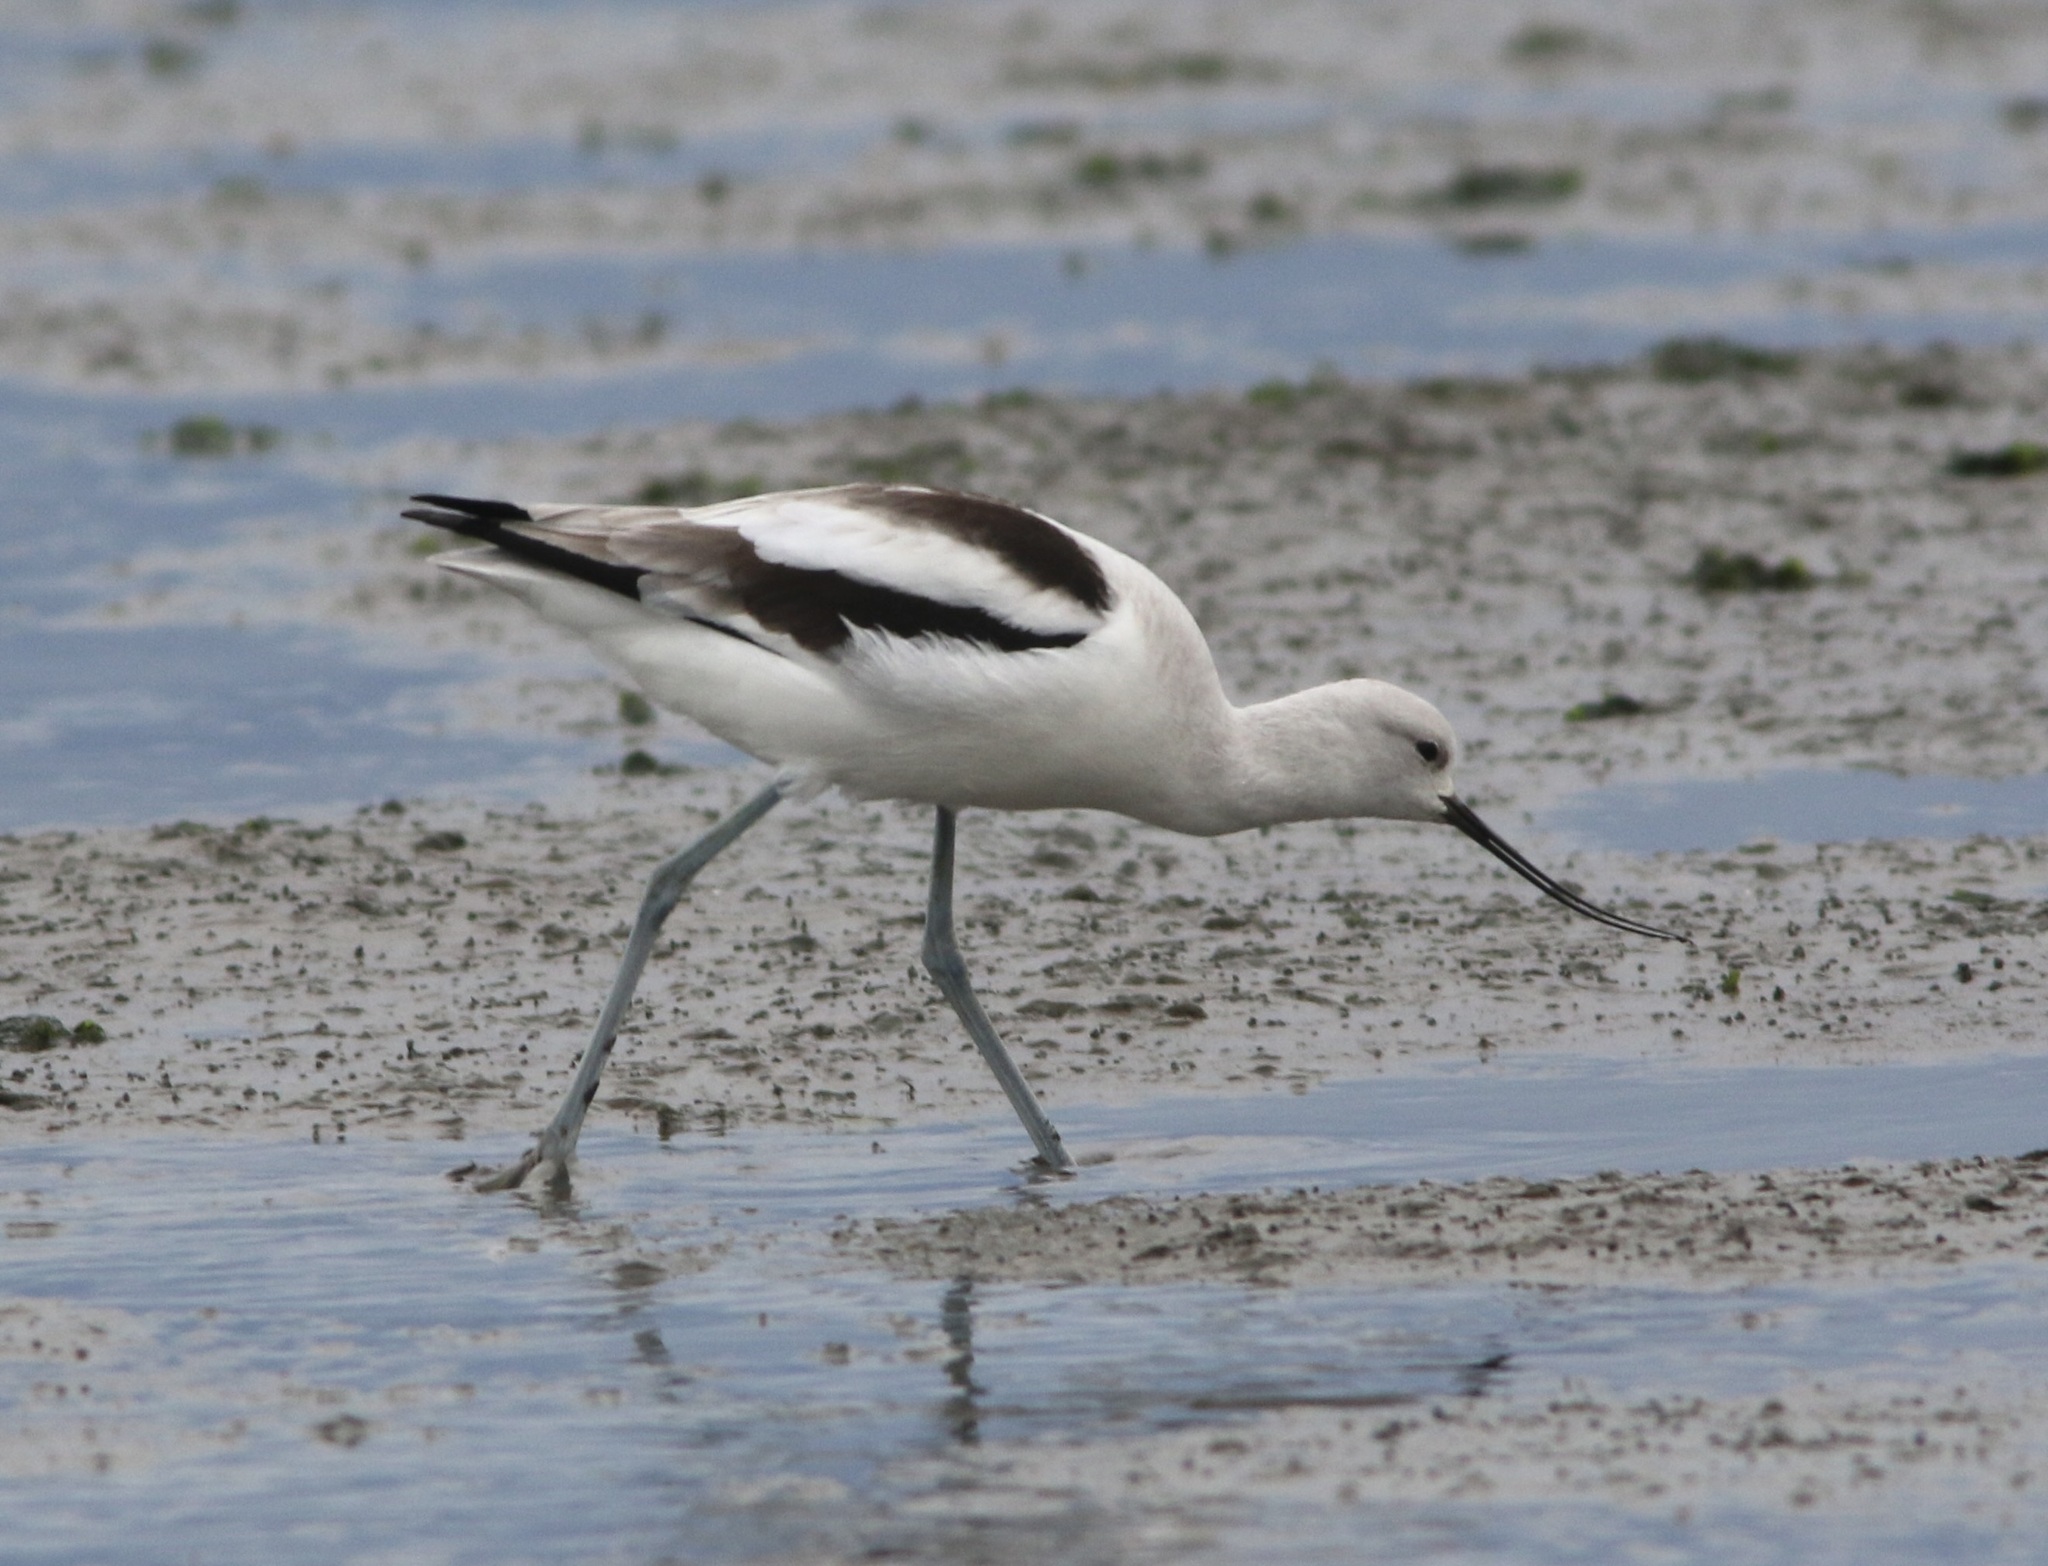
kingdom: Animalia
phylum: Chordata
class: Aves
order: Charadriiformes
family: Recurvirostridae
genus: Recurvirostra
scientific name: Recurvirostra americana
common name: American avocet
